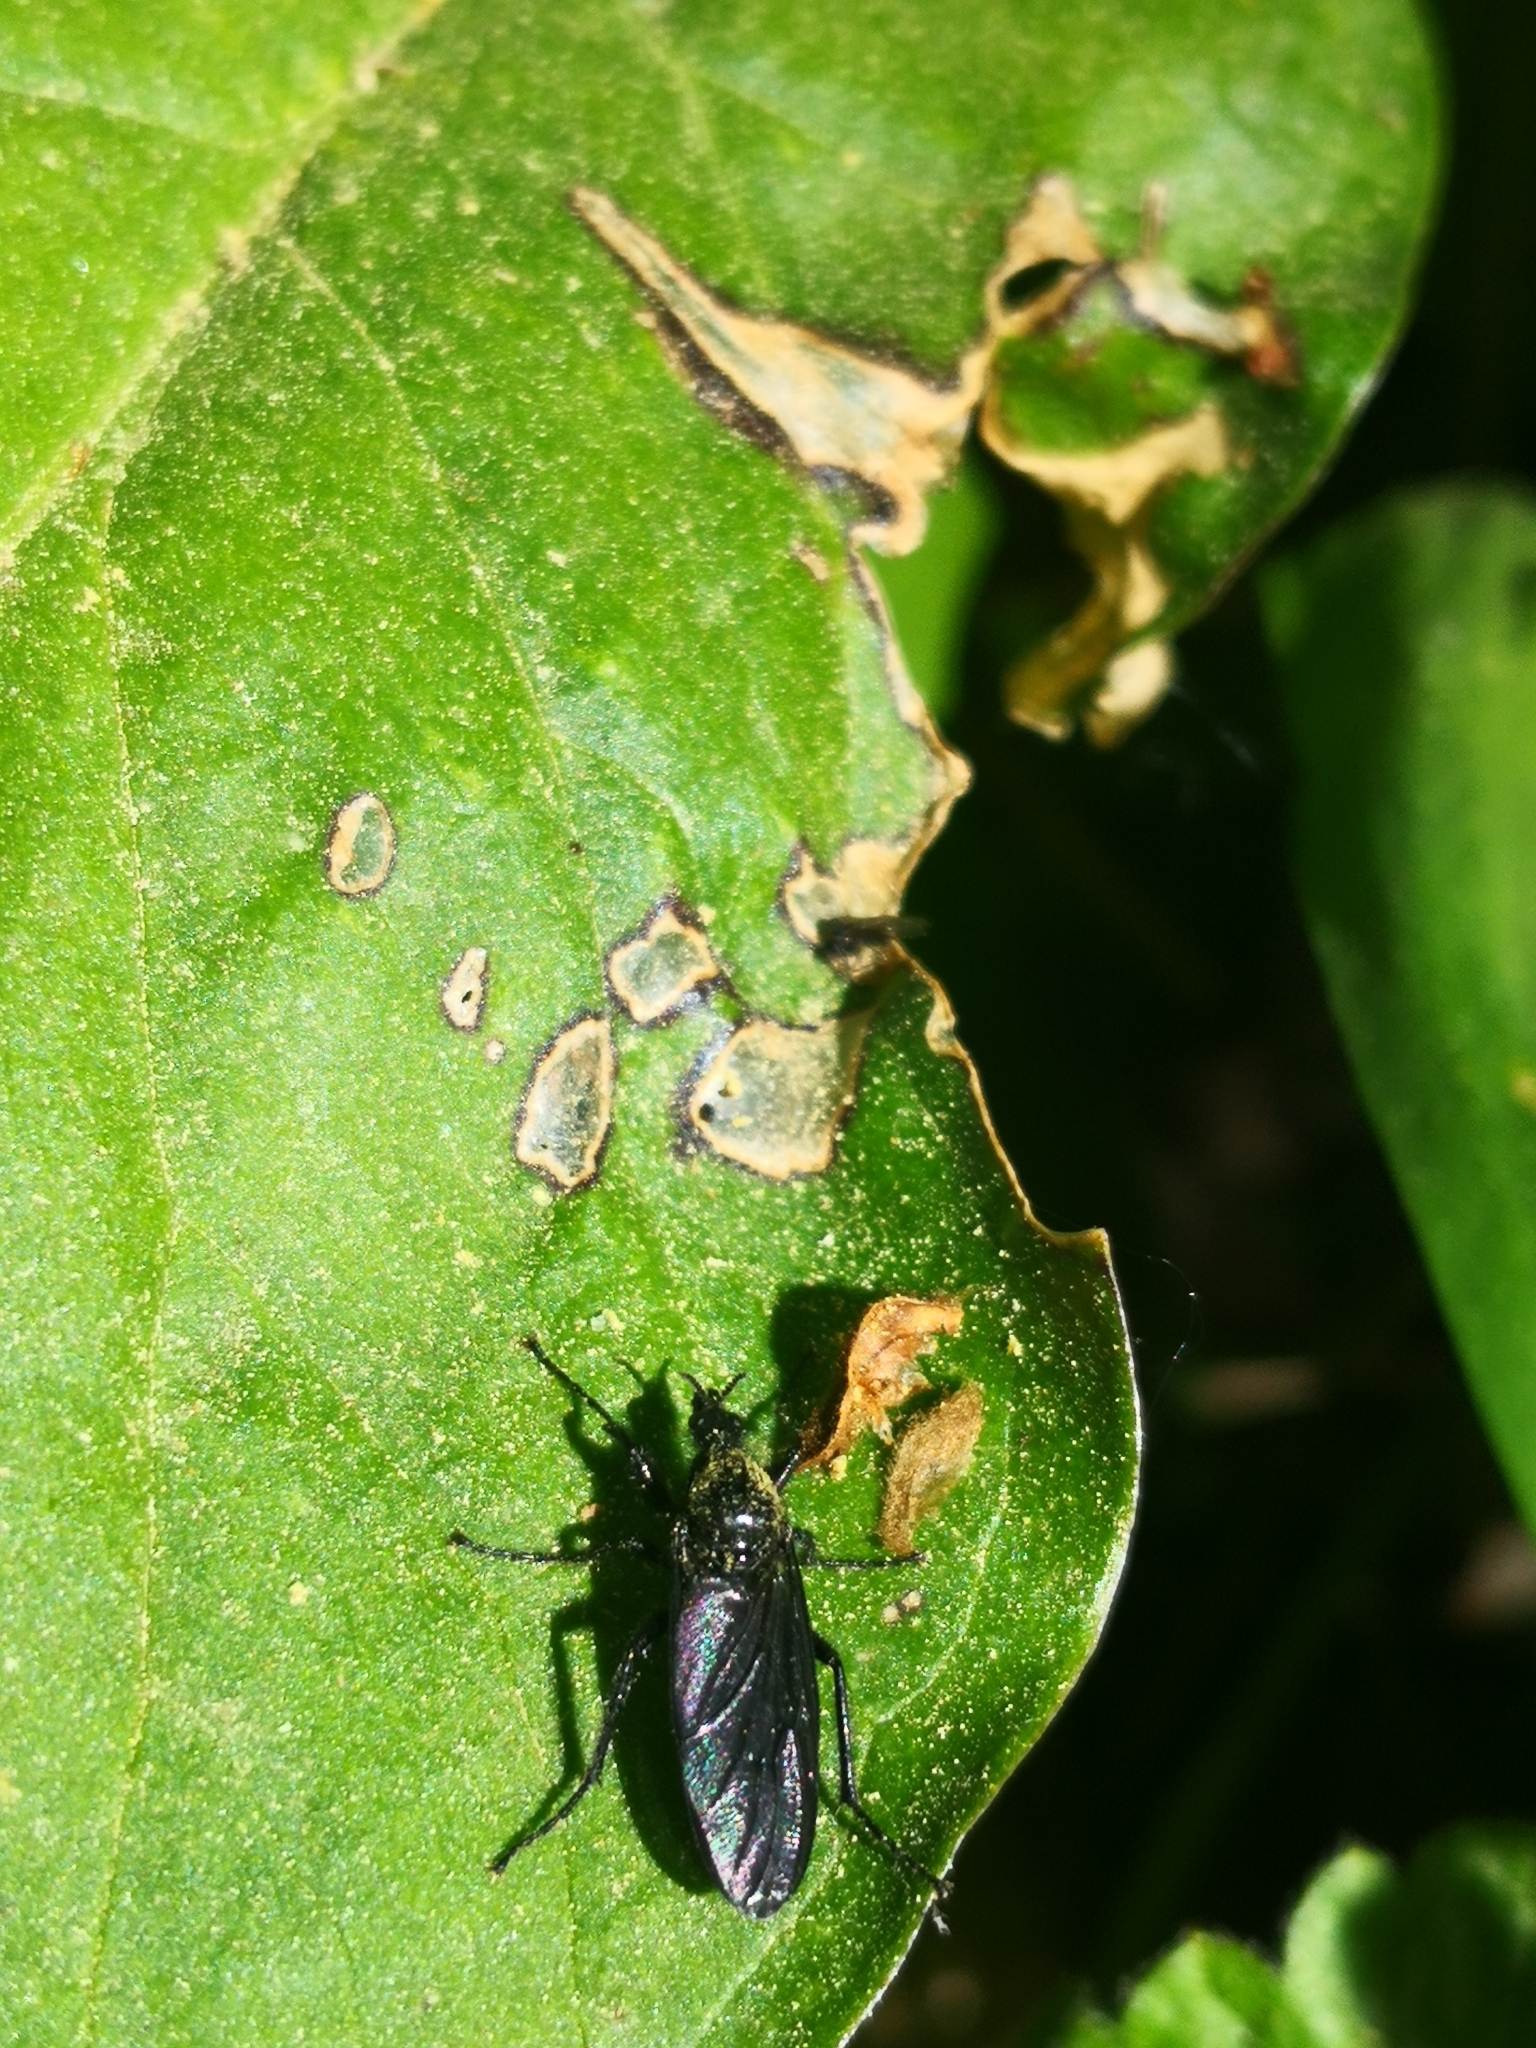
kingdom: Animalia
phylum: Arthropoda
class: Insecta
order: Diptera
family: Bibionidae
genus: Bibio
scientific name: Bibio marci
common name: St marks fly
